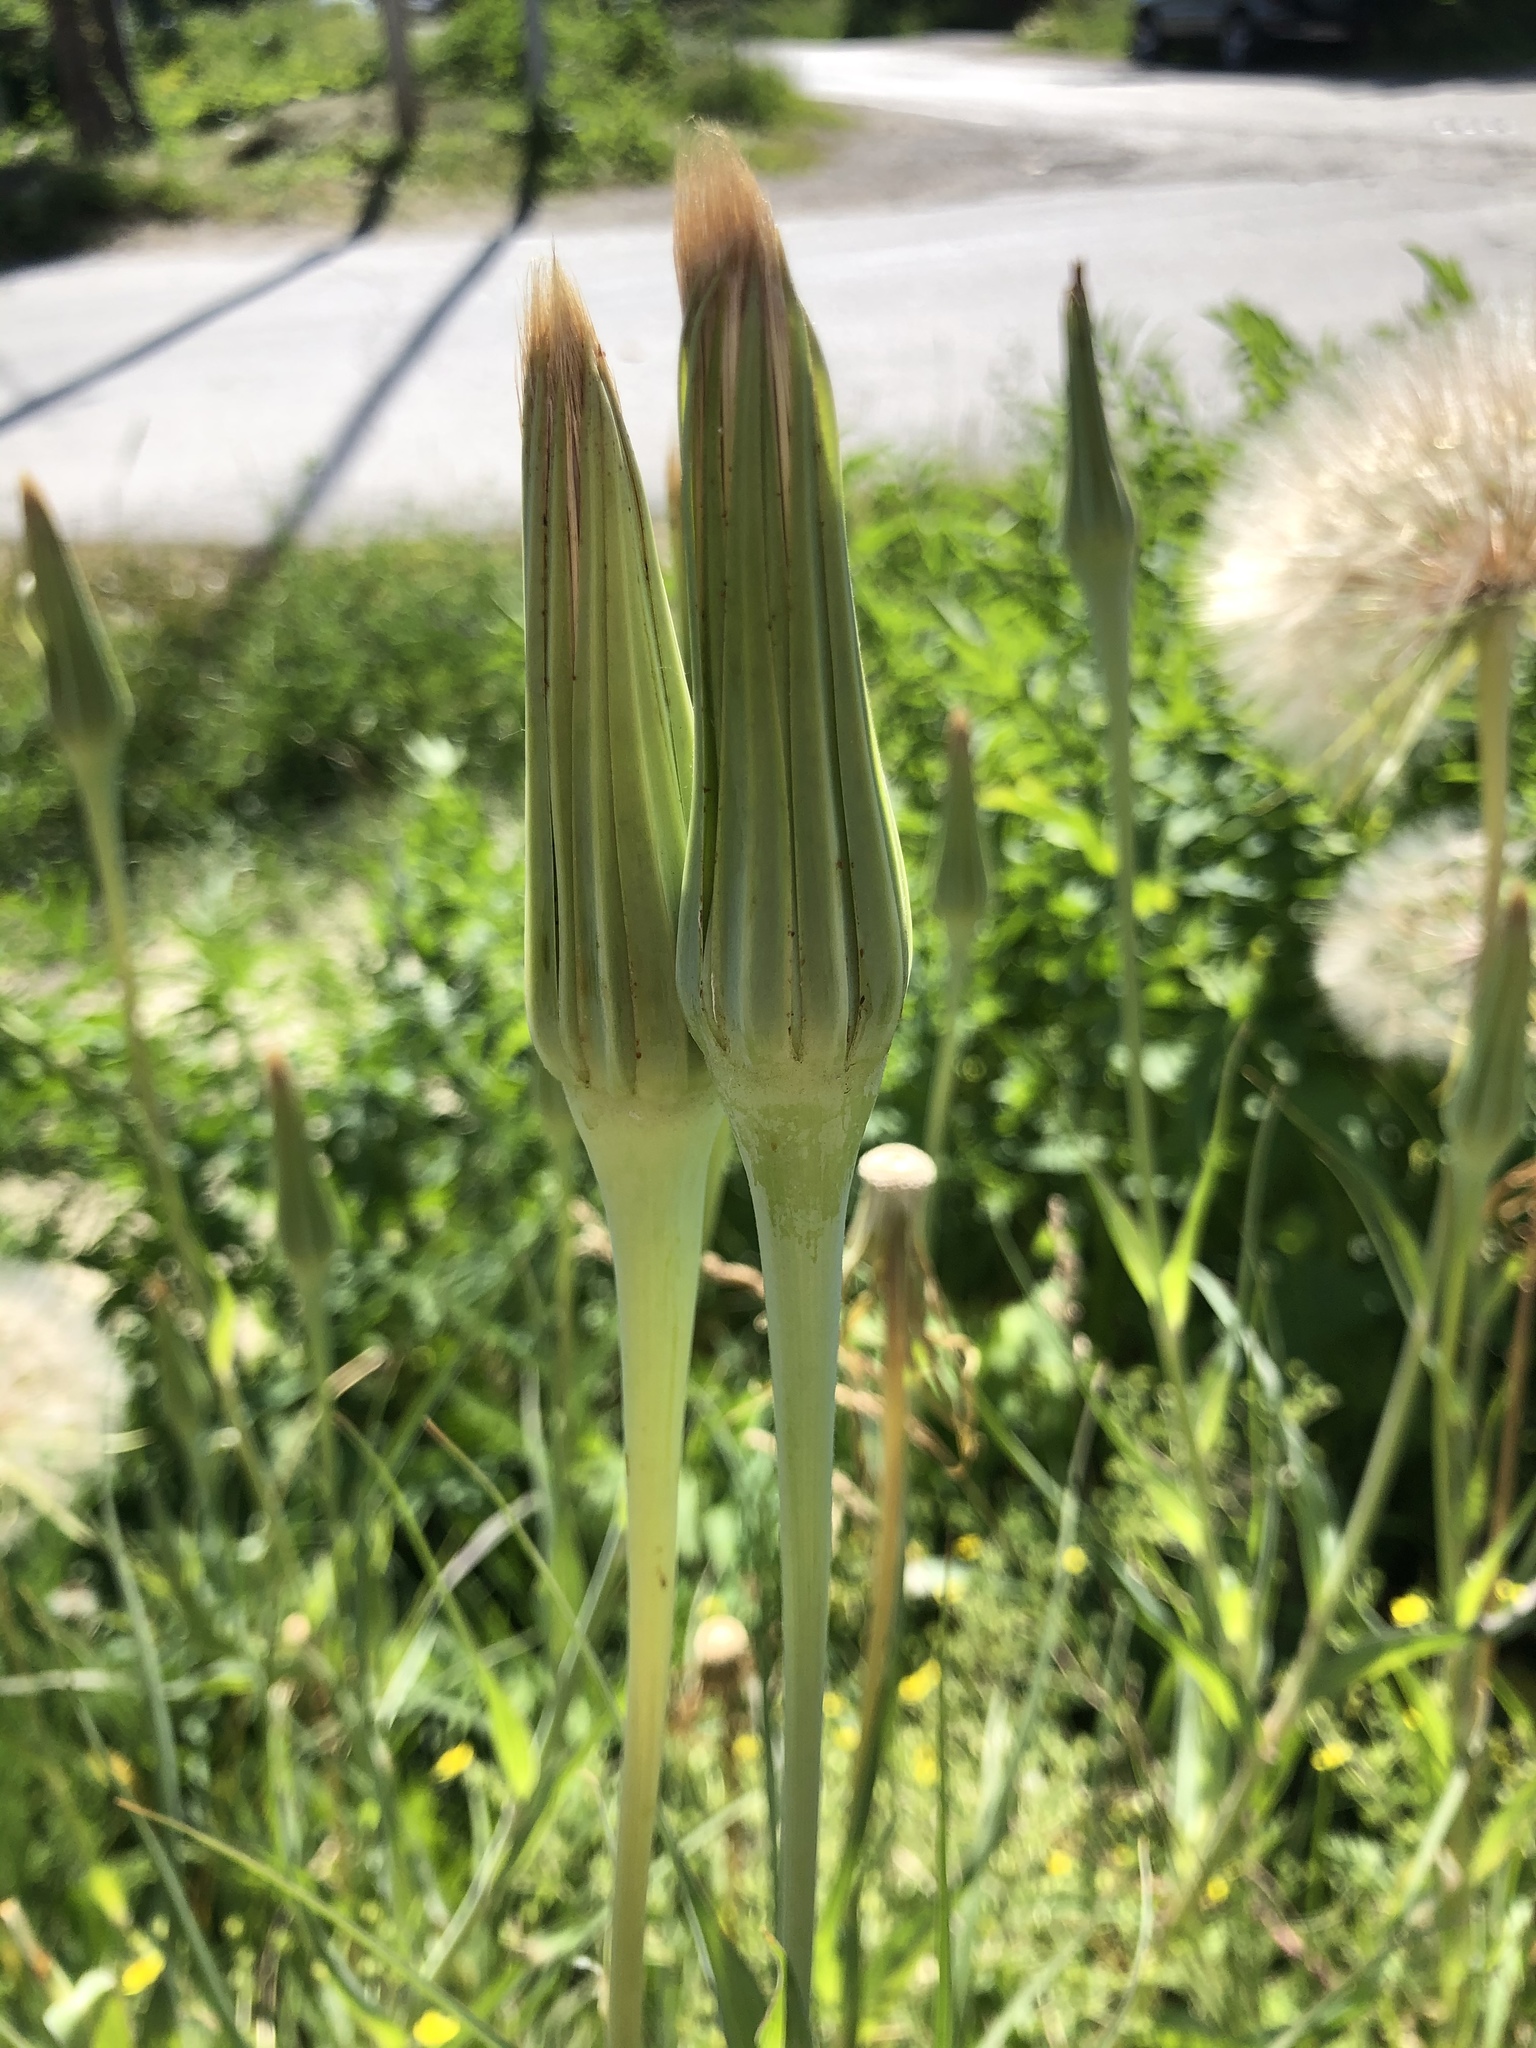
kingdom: Plantae
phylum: Tracheophyta
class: Magnoliopsida
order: Asterales
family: Asteraceae
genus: Tragopogon
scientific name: Tragopogon dubius
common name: Yellow salsify
